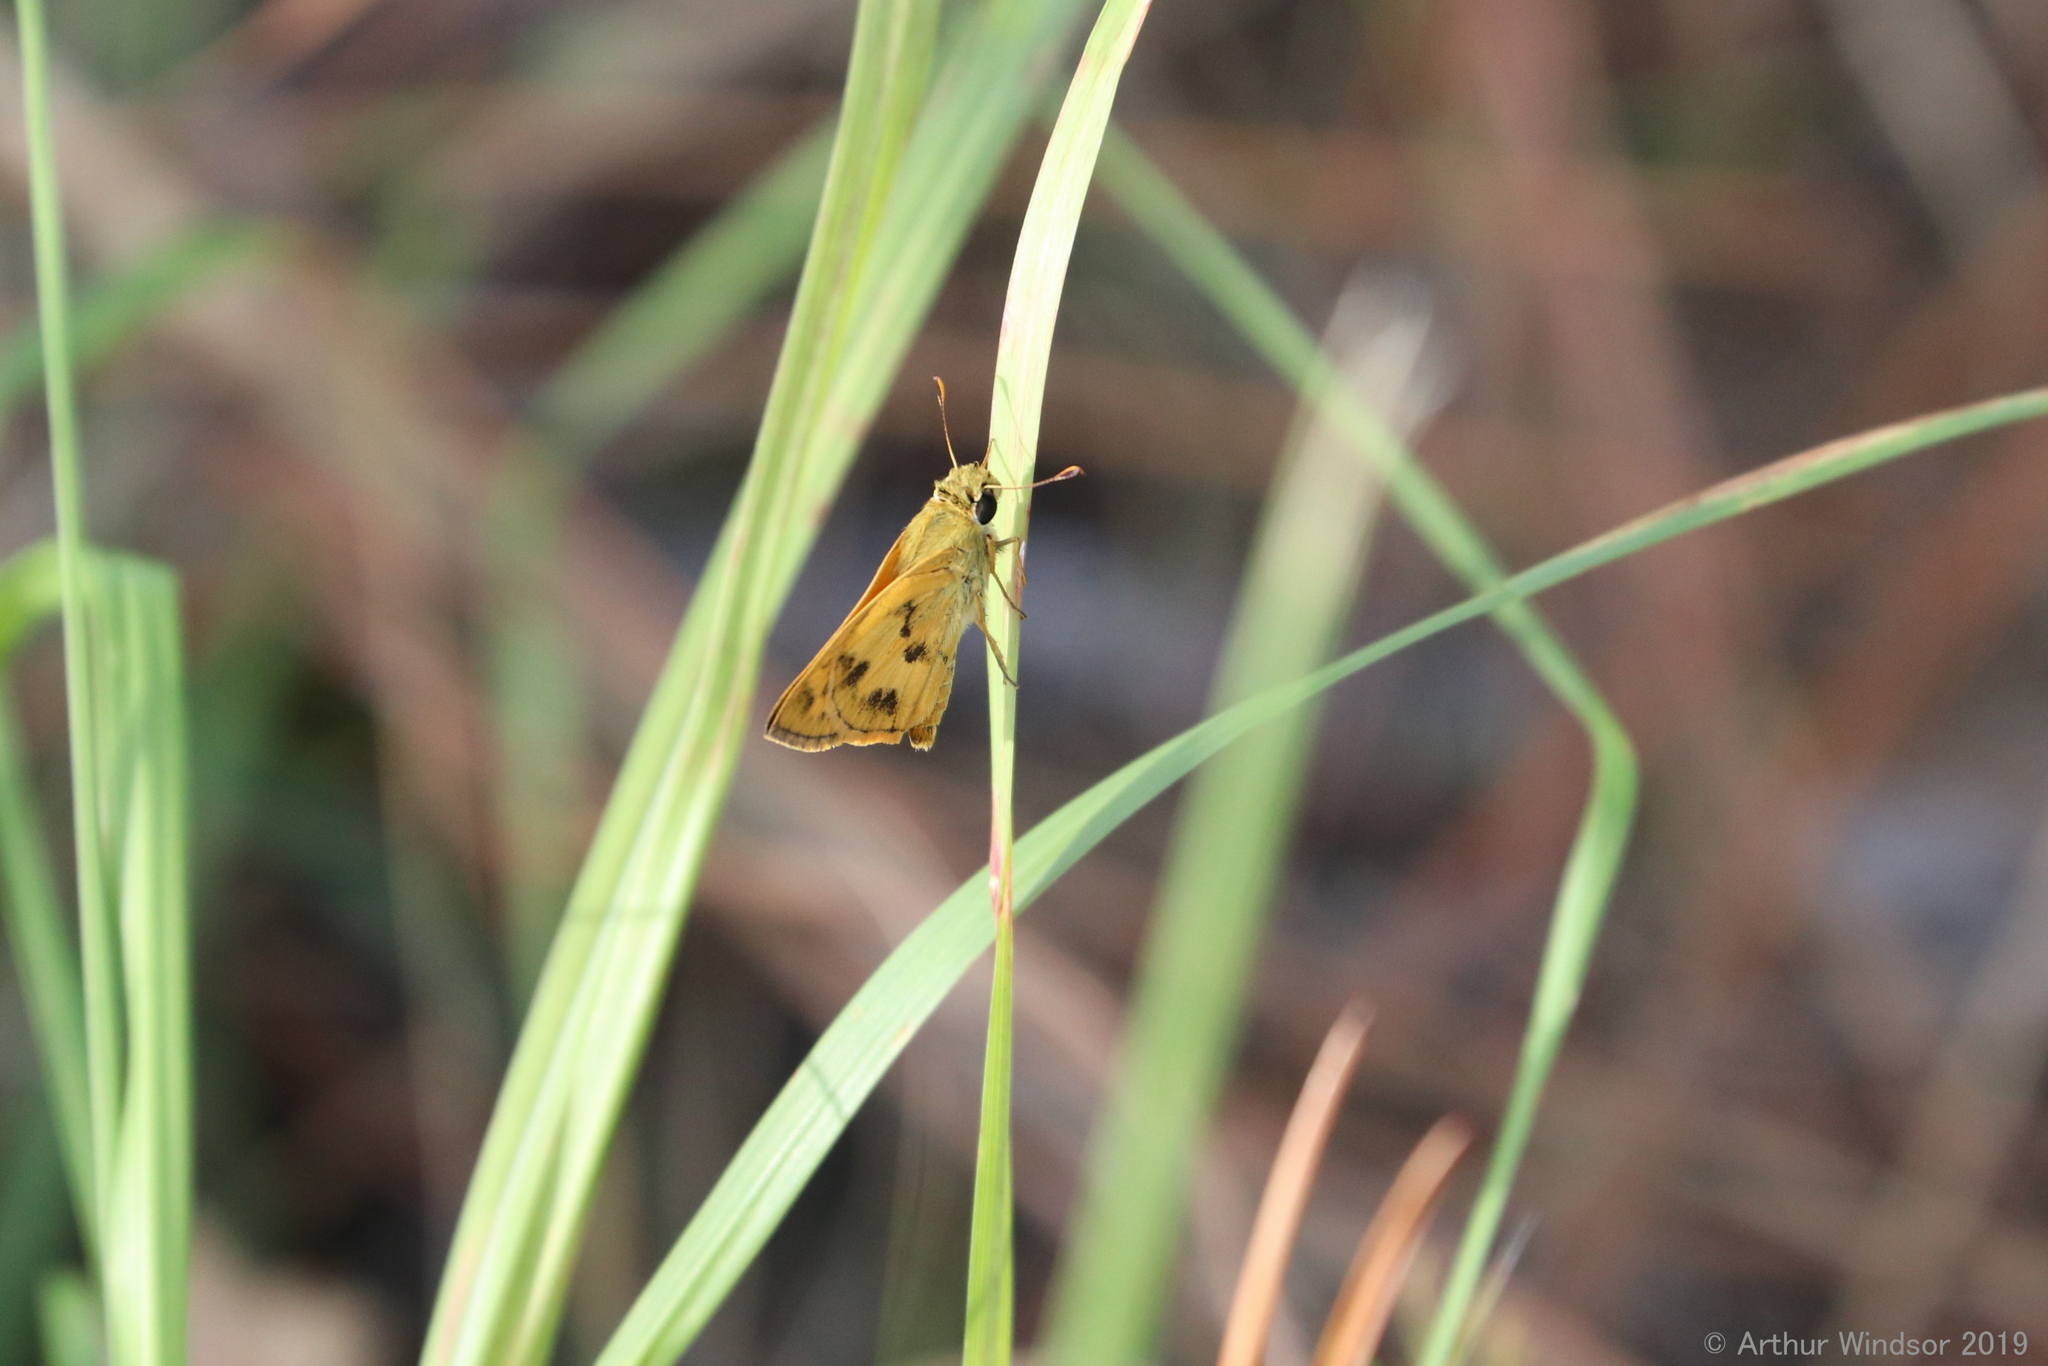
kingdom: Animalia
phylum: Arthropoda
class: Insecta
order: Lepidoptera
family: Hesperiidae
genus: Polites
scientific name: Polites vibex
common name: Whirlabout
